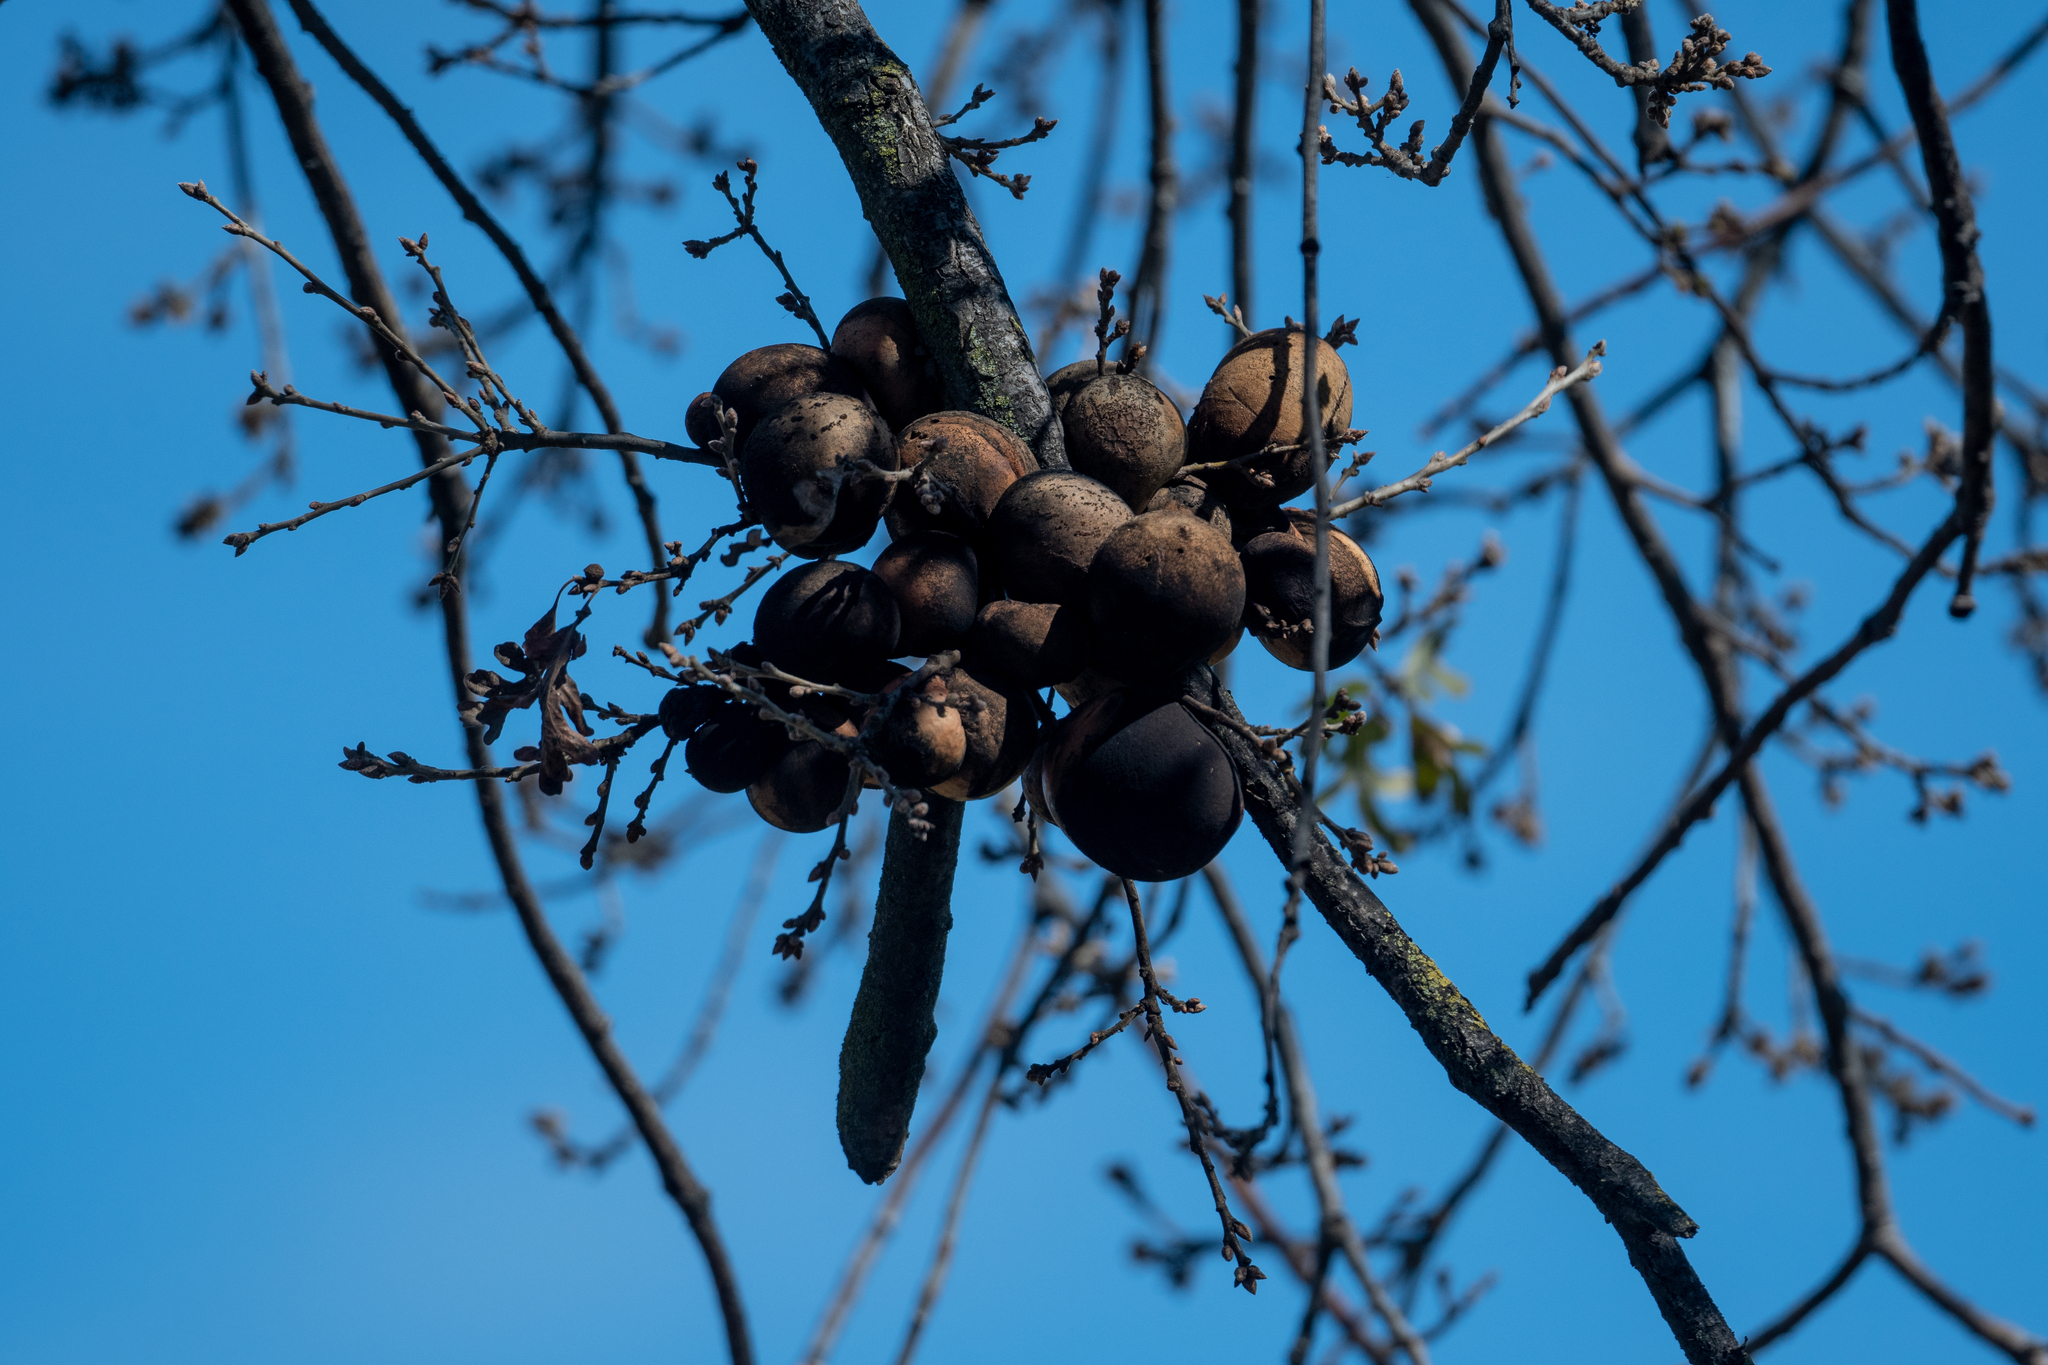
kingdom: Animalia
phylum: Arthropoda
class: Insecta
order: Hymenoptera
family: Cynipidae
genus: Andricus
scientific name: Andricus quercuscalifornicus
